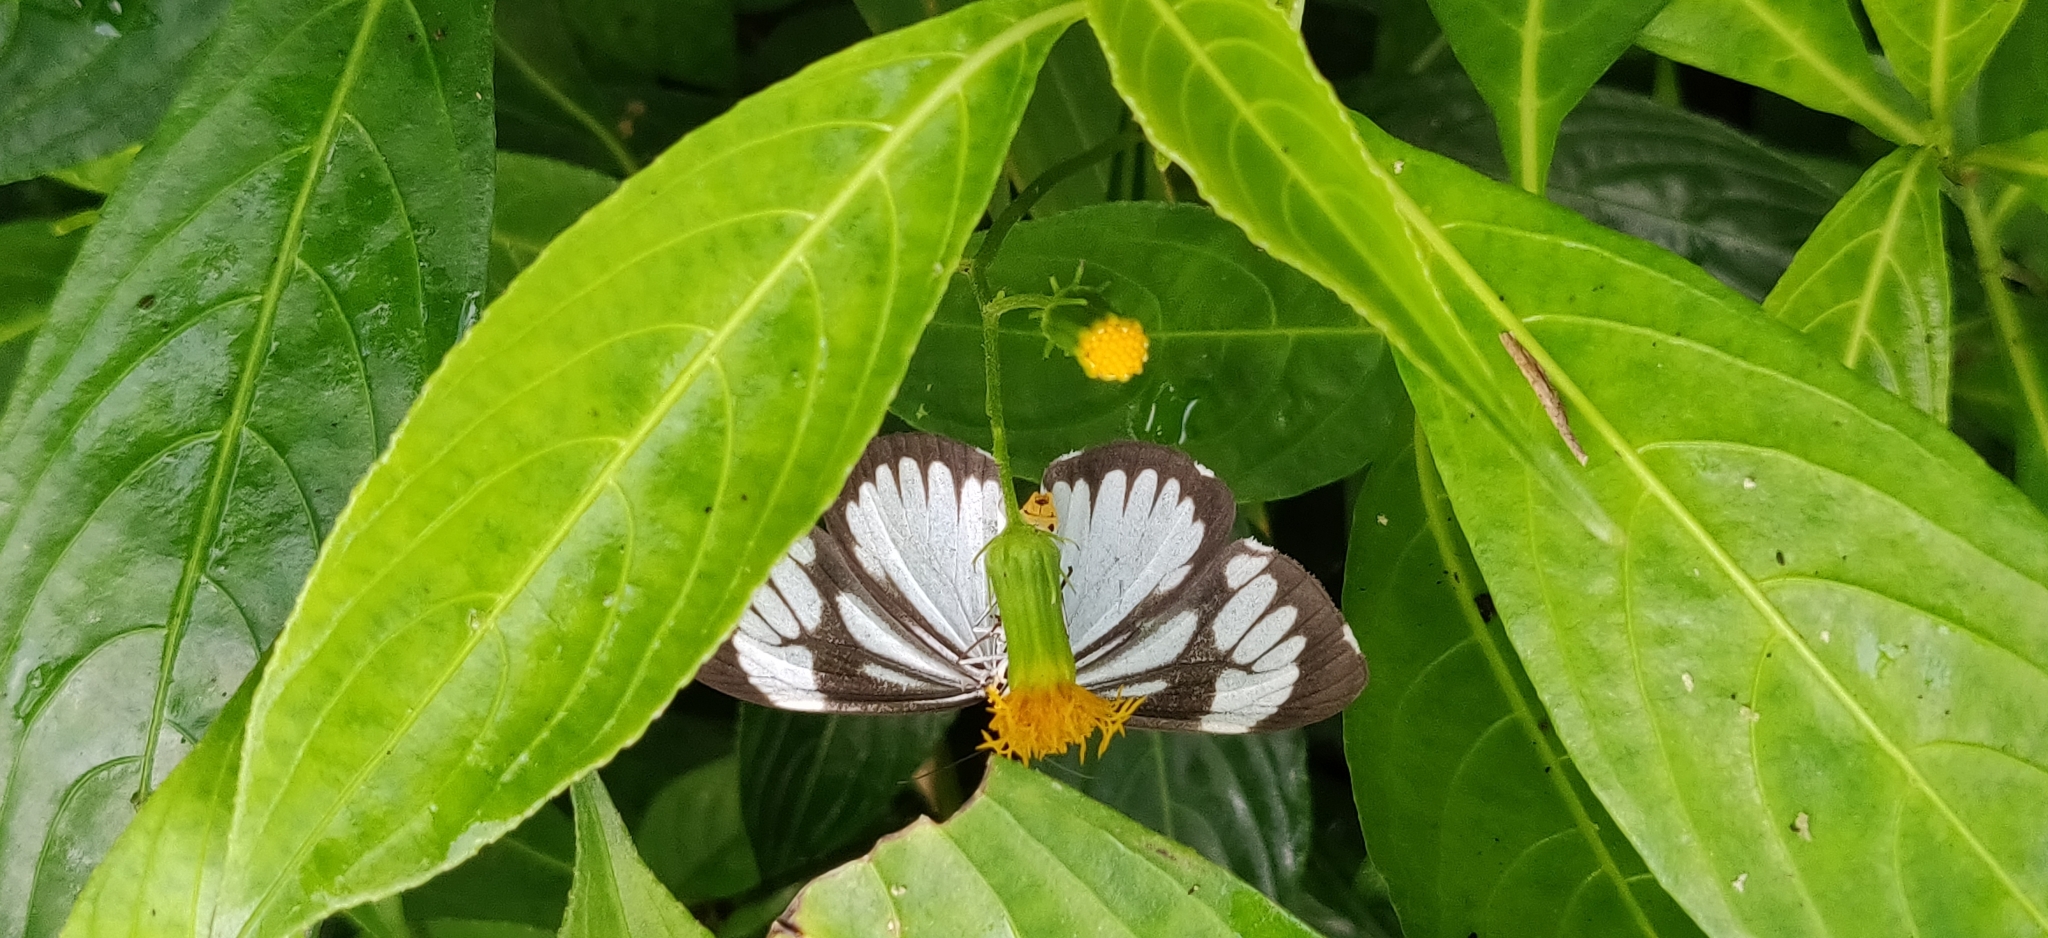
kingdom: Animalia
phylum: Arthropoda
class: Insecta
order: Lepidoptera
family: Erebidae
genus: Nyctemera
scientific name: Nyctemera coleta
